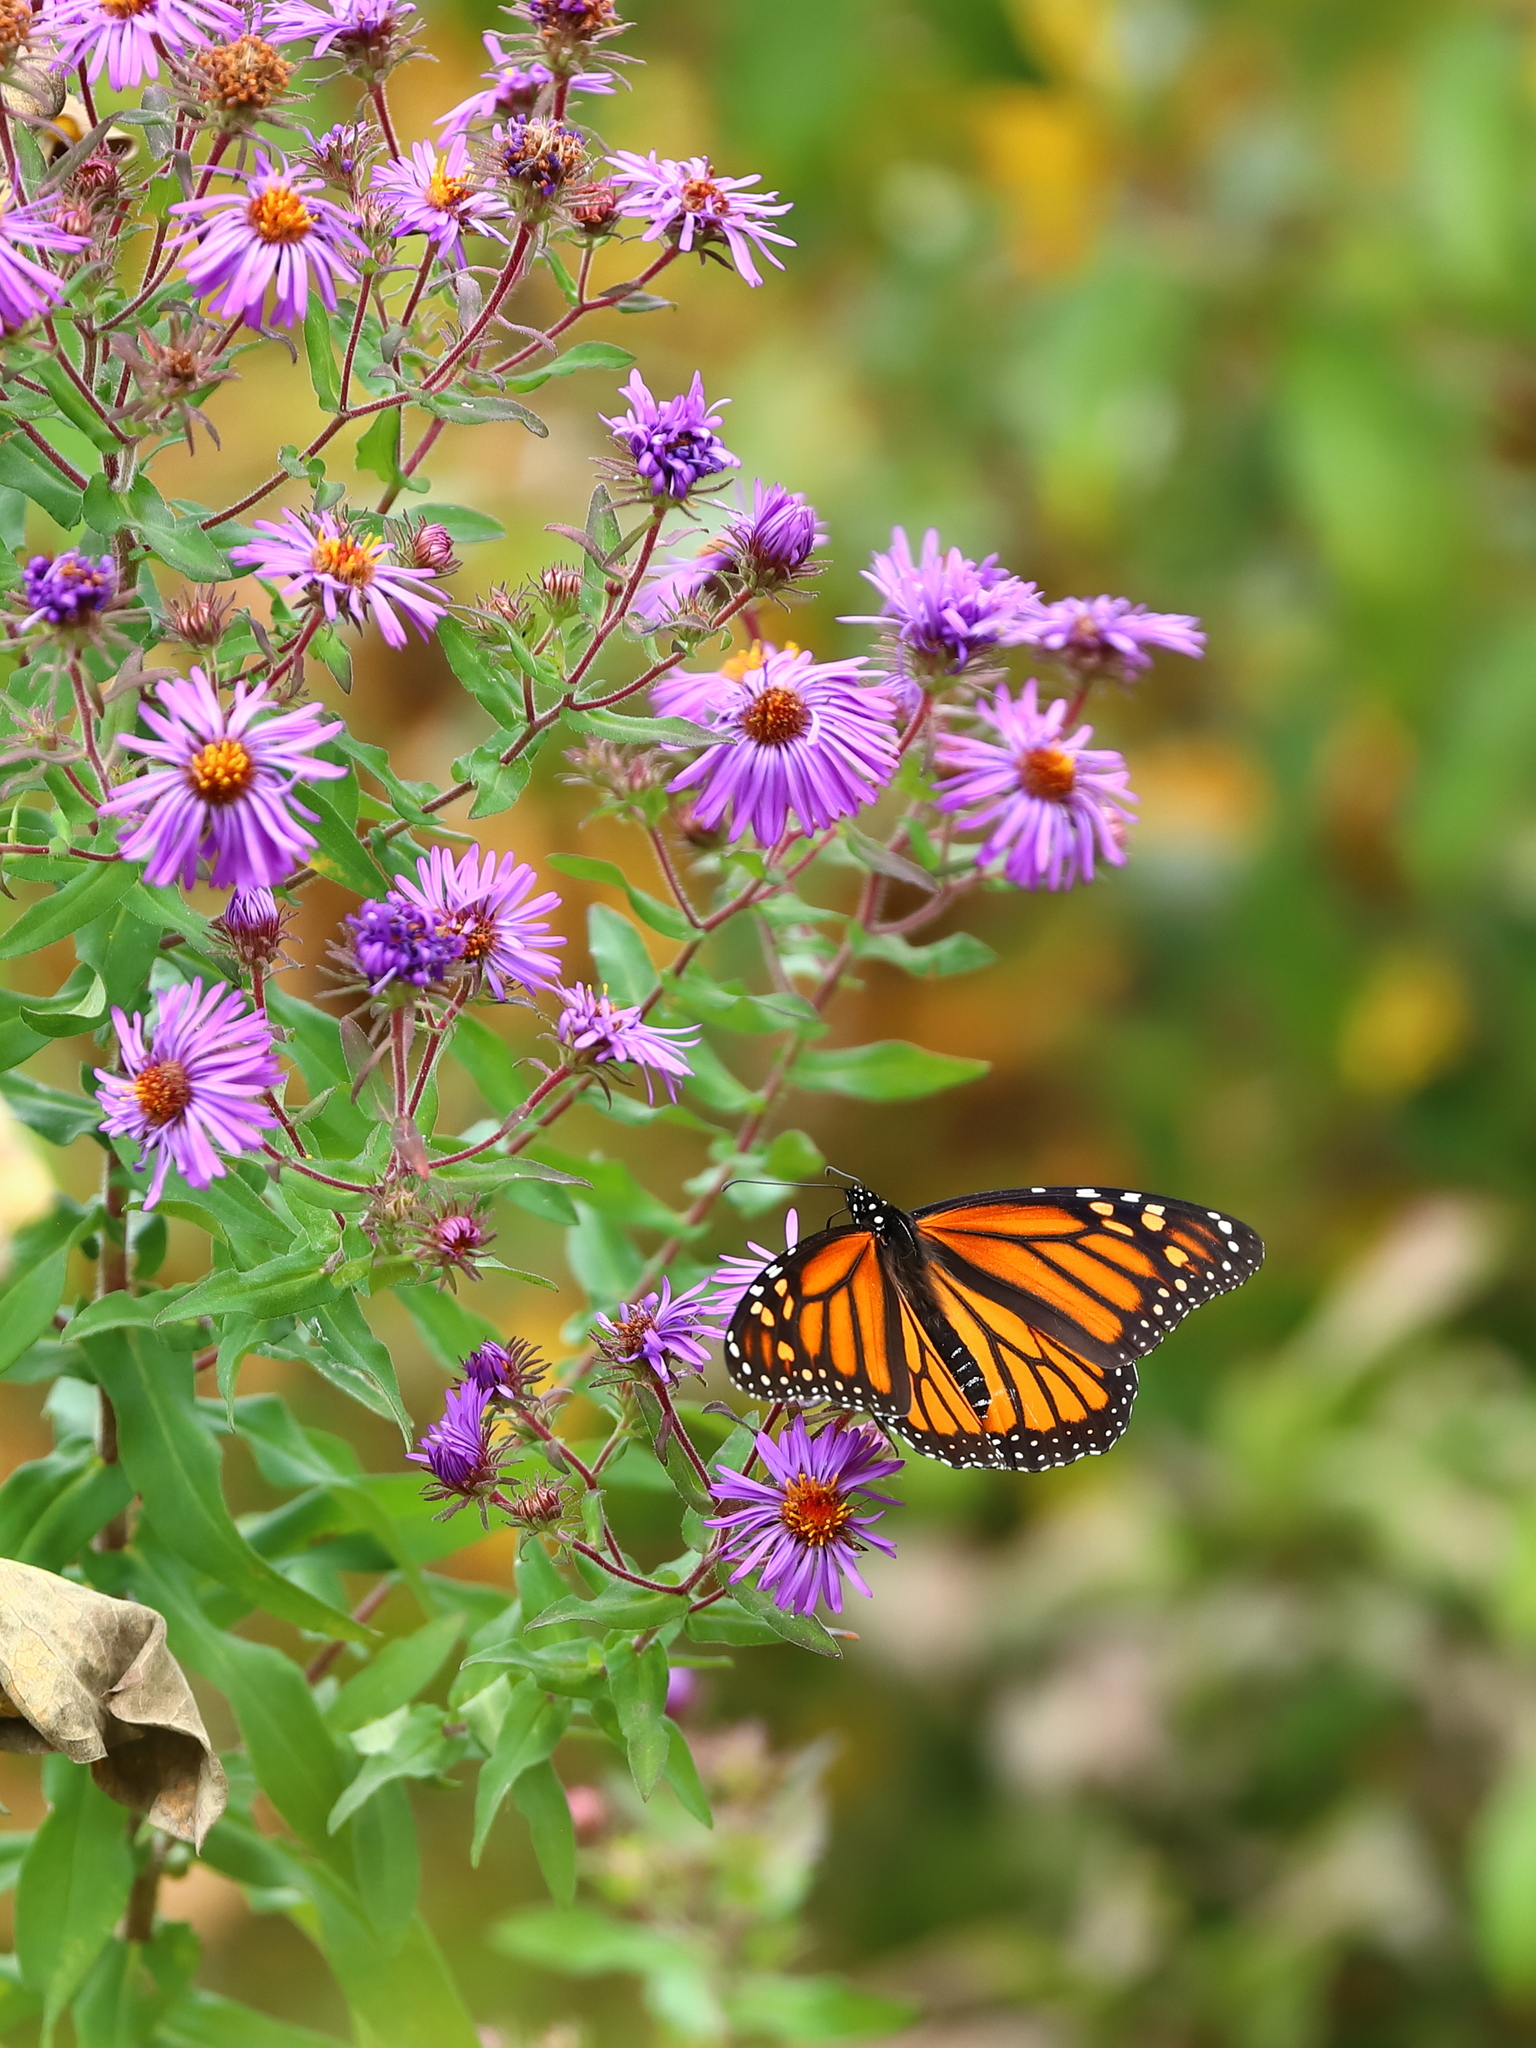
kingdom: Animalia
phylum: Arthropoda
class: Insecta
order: Lepidoptera
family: Nymphalidae
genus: Danaus
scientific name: Danaus plexippus
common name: Monarch
